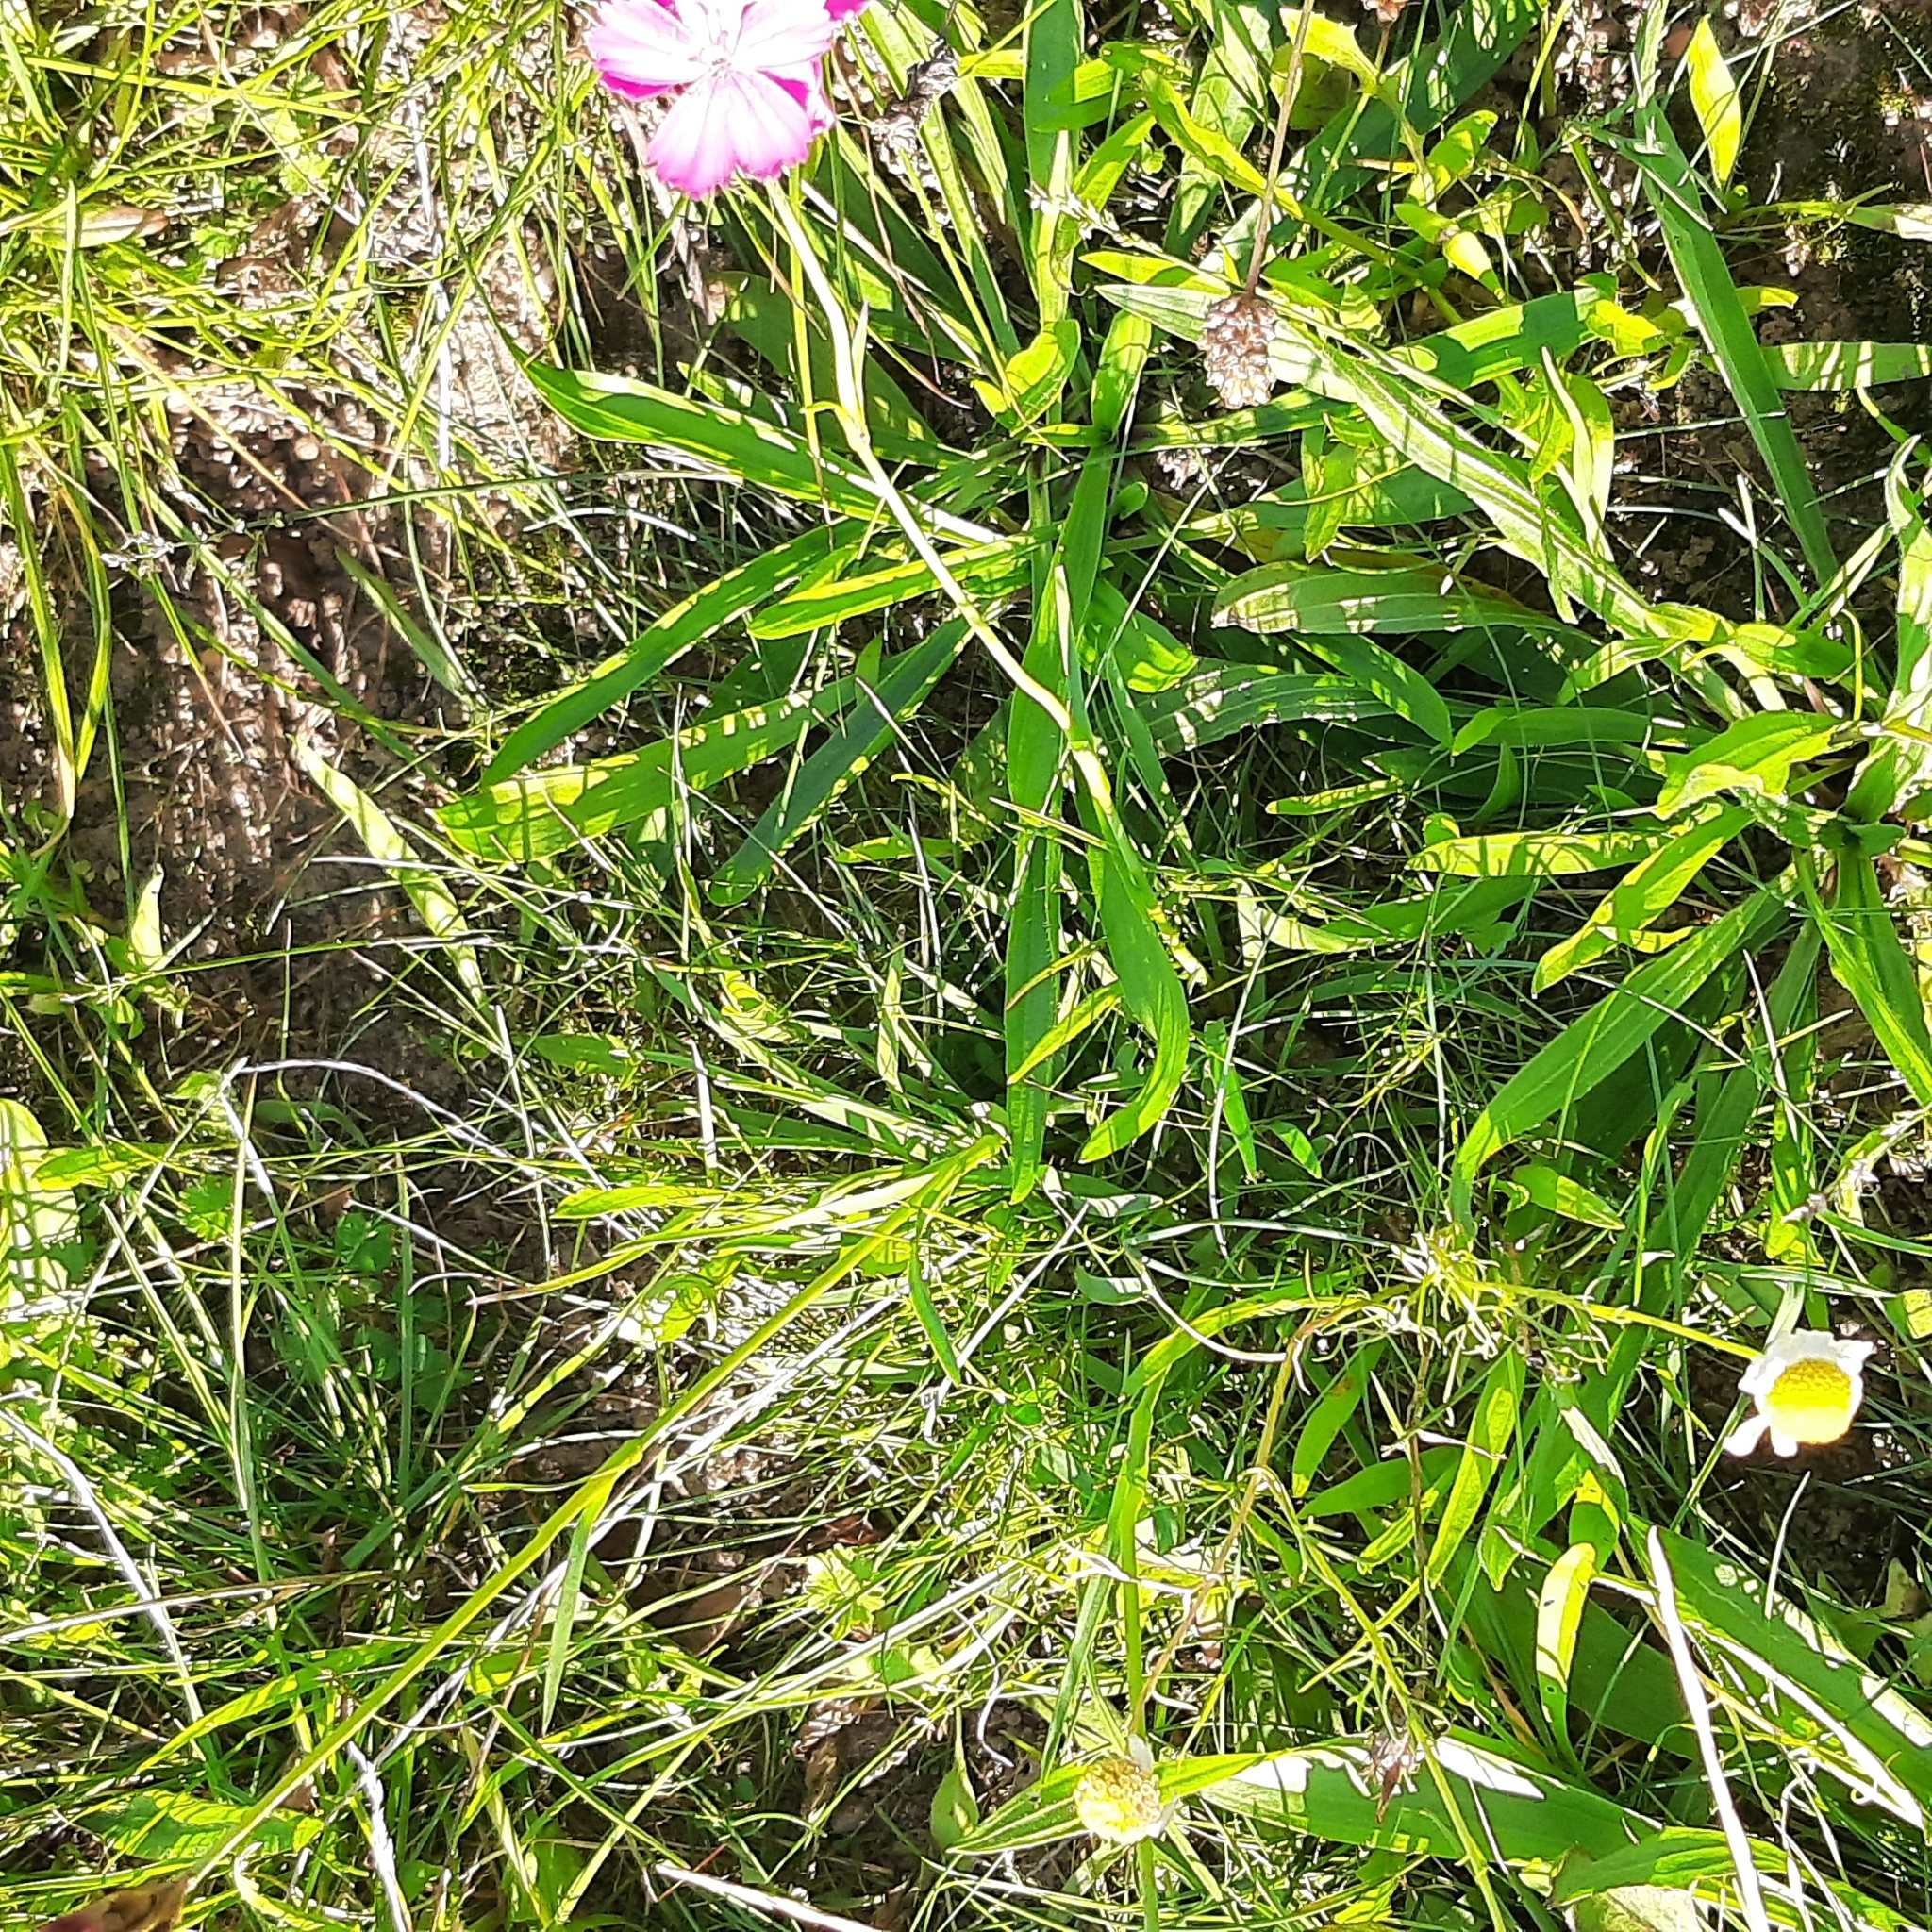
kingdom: Plantae
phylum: Tracheophyta
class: Magnoliopsida
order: Caryophyllales
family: Caryophyllaceae
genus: Dianthus
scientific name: Dianthus carthusianorum
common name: Carthusian pink
